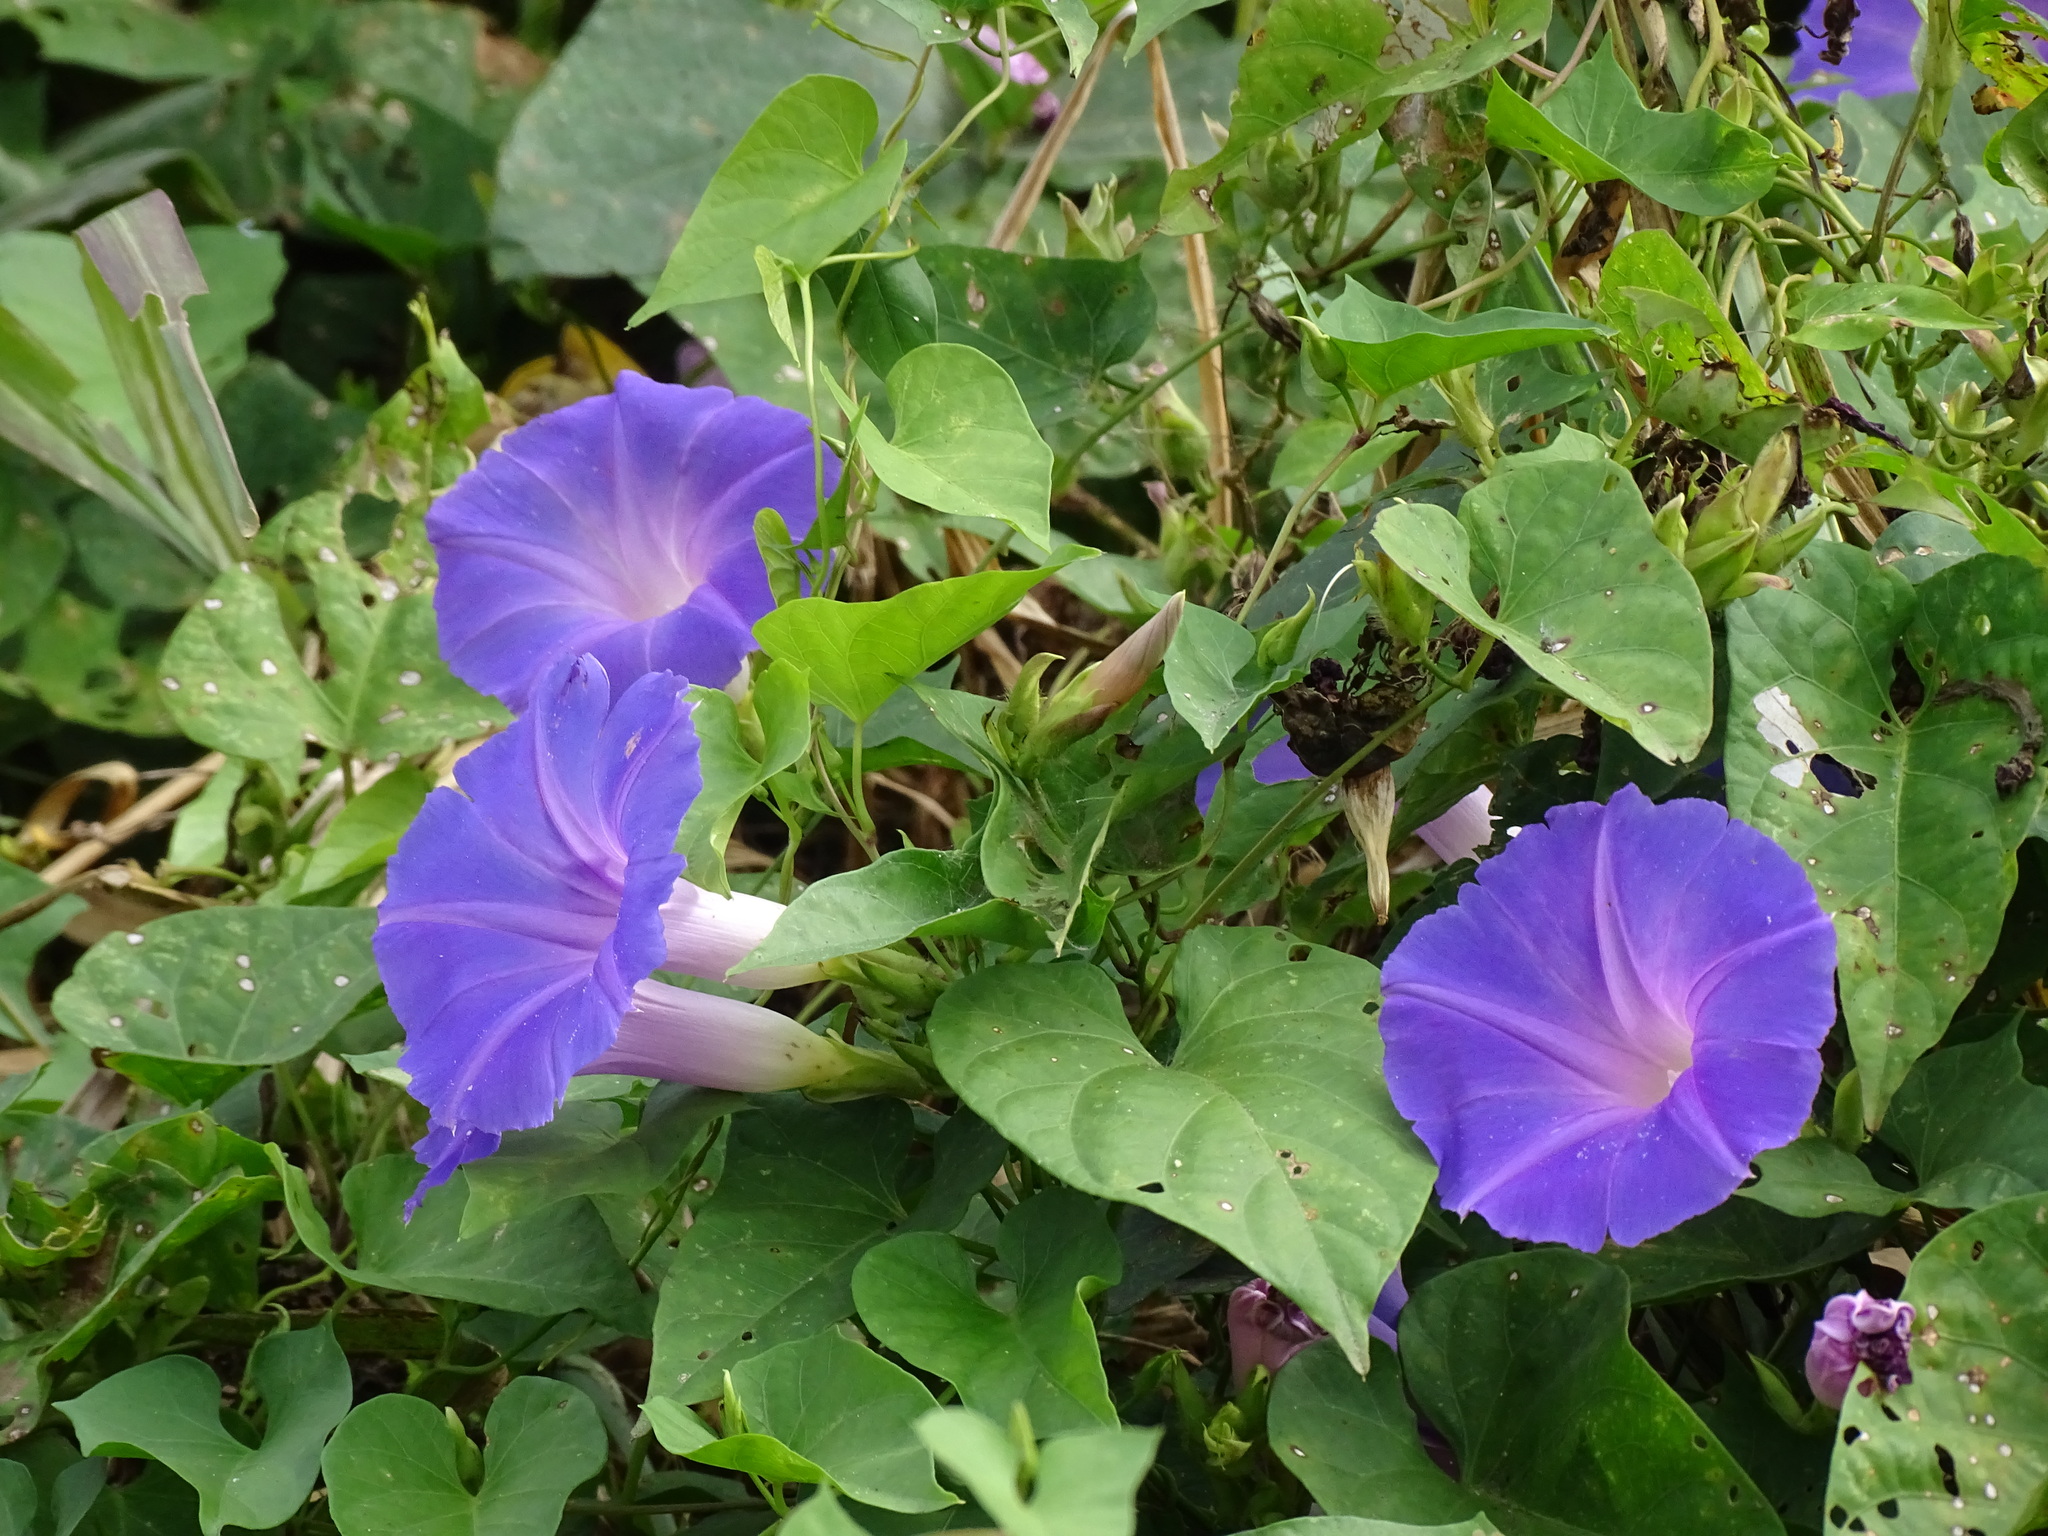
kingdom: Plantae
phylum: Tracheophyta
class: Magnoliopsida
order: Solanales
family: Convolvulaceae
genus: Ipomoea
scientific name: Ipomoea mitchelliae
